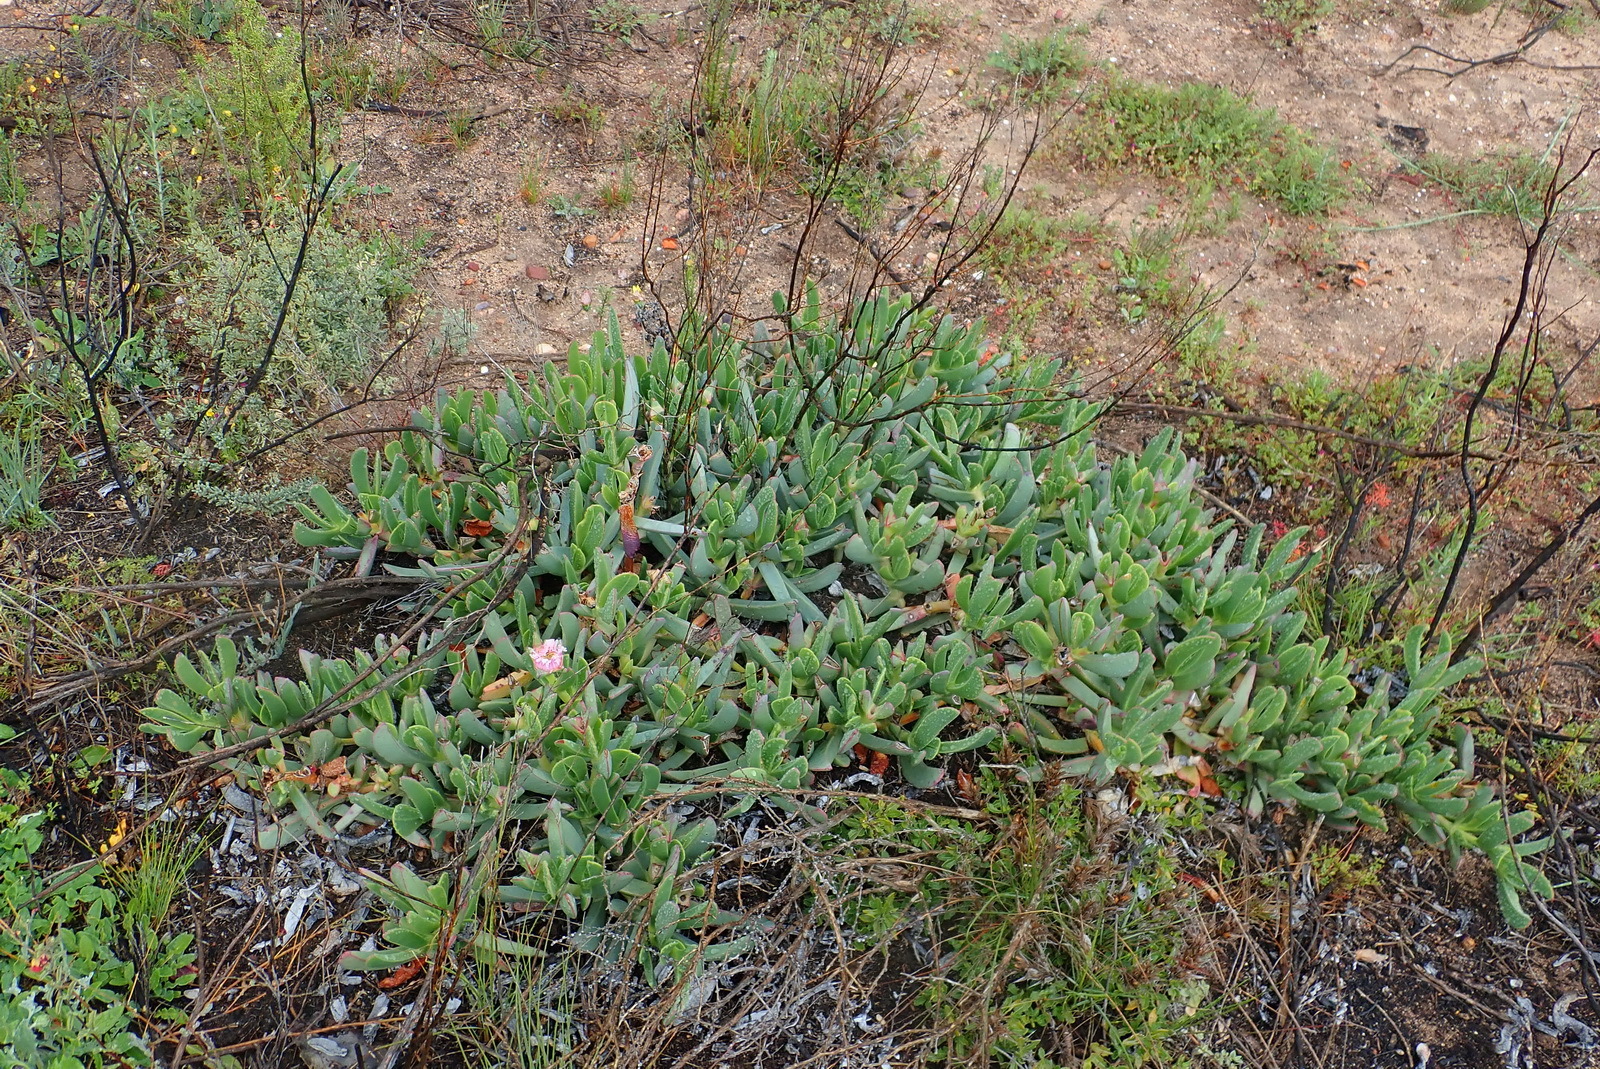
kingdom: Plantae
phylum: Tracheophyta
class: Magnoliopsida
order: Caryophyllales
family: Aizoaceae
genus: Carpobrotus
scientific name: Carpobrotus mellei
